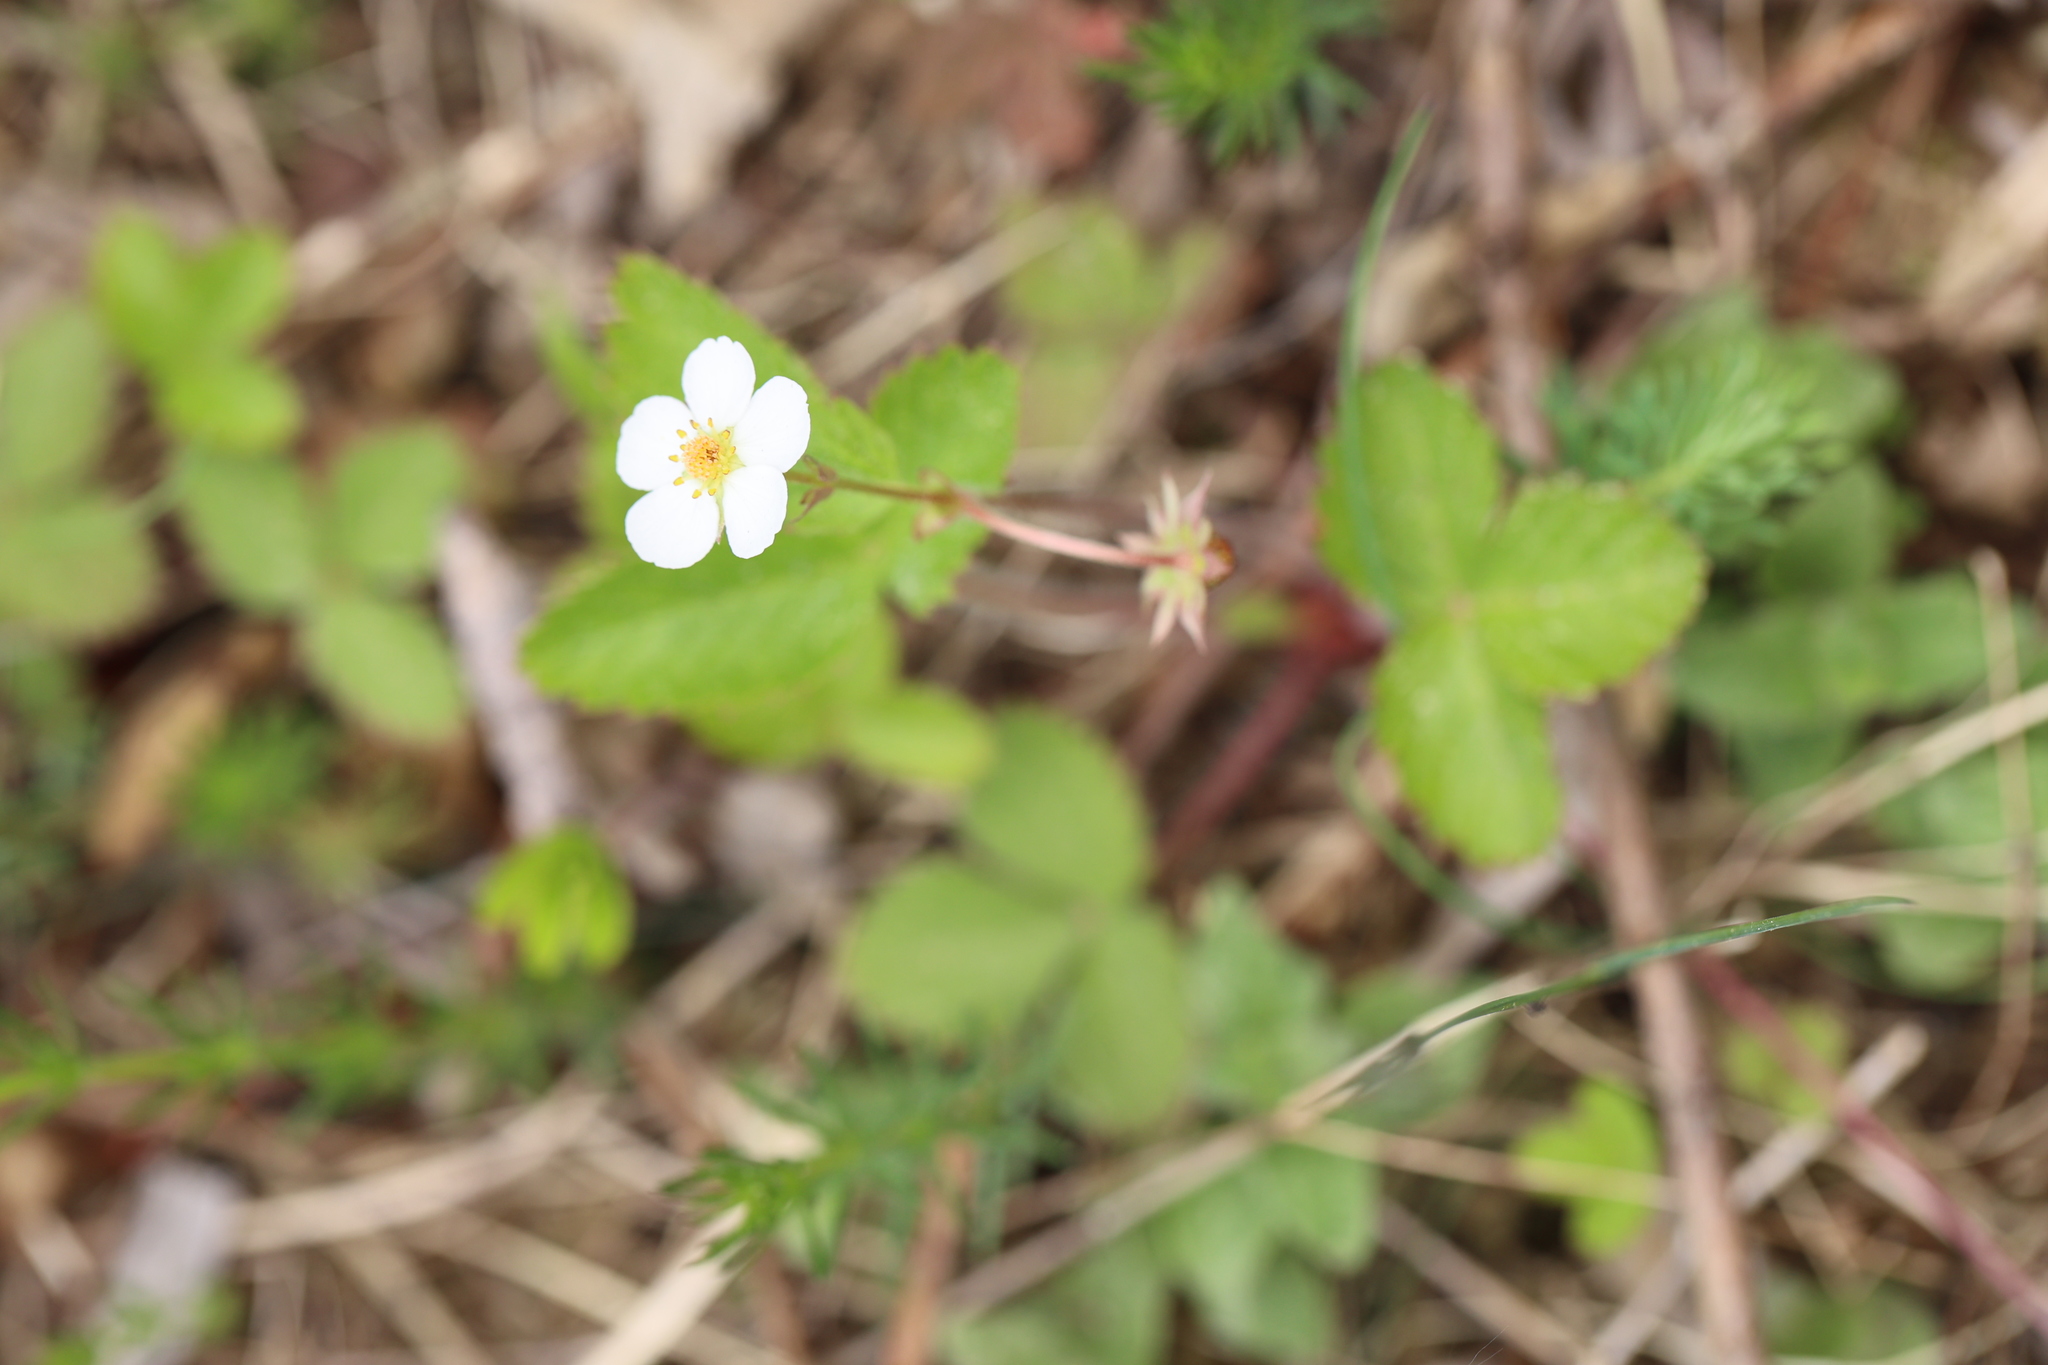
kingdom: Plantae
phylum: Tracheophyta
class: Magnoliopsida
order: Rosales
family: Rosaceae
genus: Fragaria
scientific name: Fragaria vesca
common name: Wild strawberry
